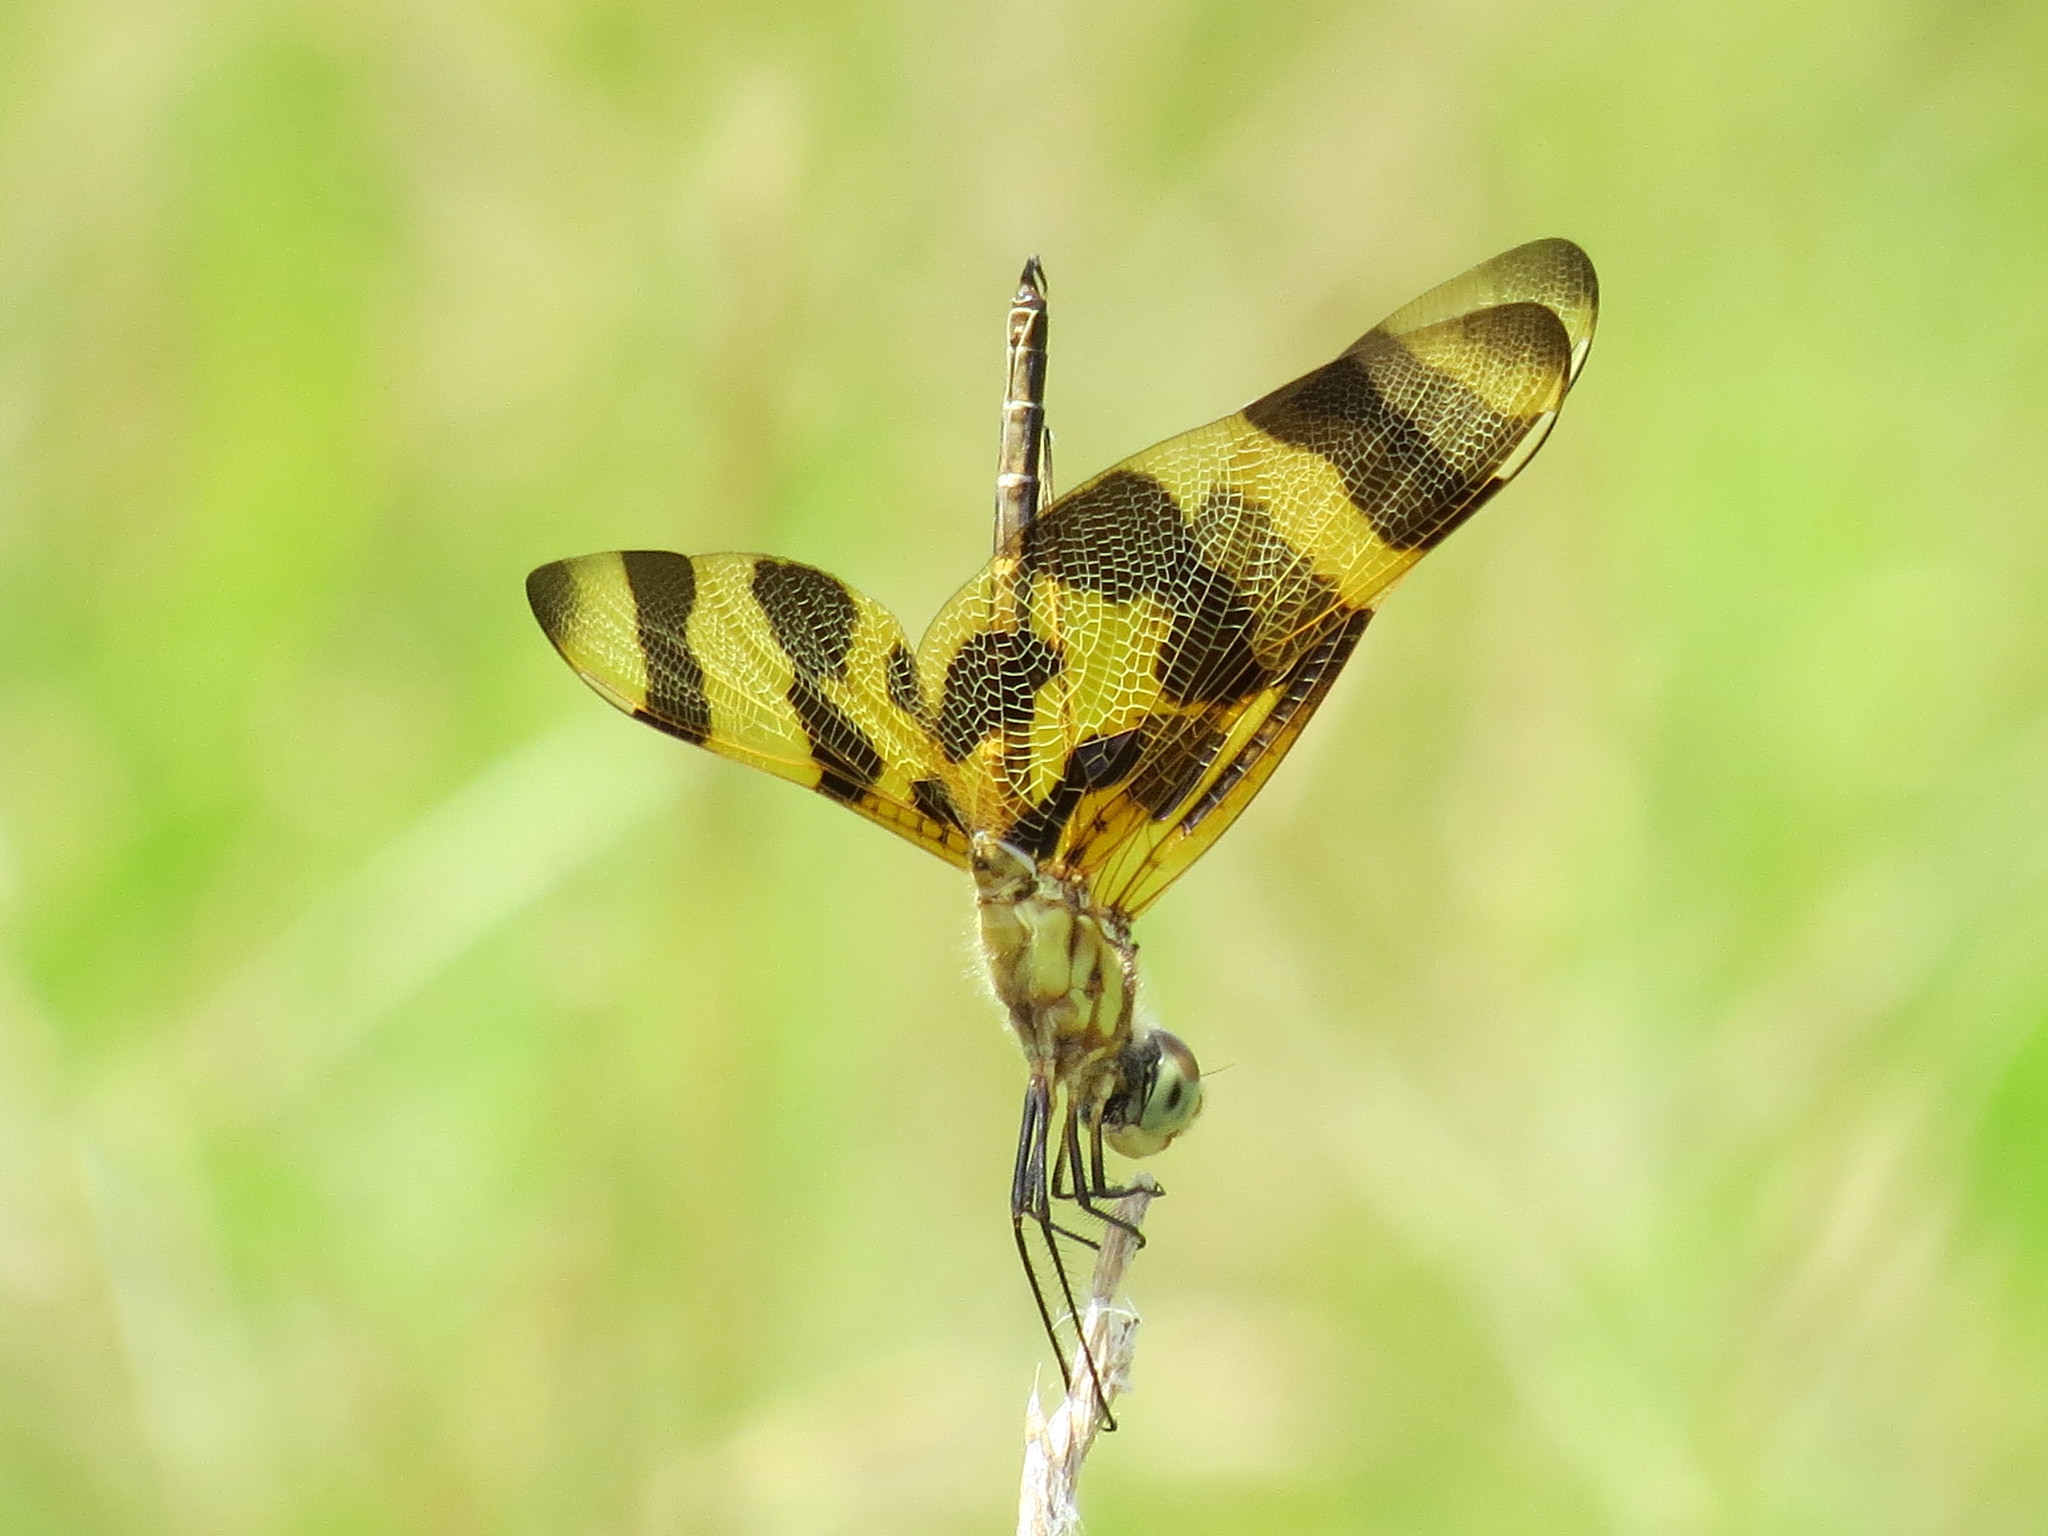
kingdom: Animalia
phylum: Arthropoda
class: Insecta
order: Odonata
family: Libellulidae
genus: Celithemis
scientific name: Celithemis eponina
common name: Halloween pennant
